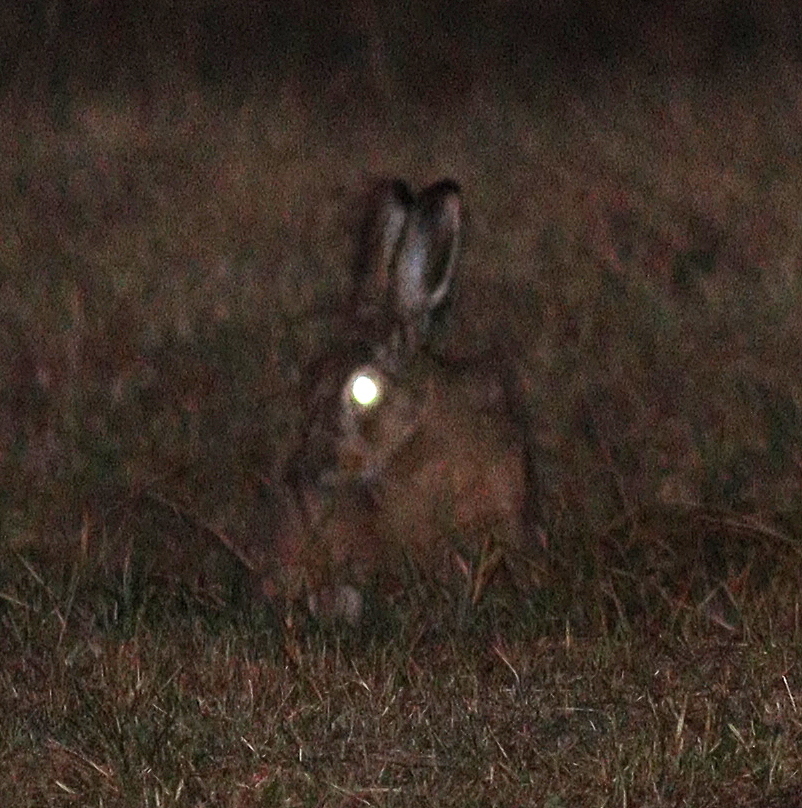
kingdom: Animalia
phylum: Chordata
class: Mammalia
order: Lagomorpha
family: Leporidae
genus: Lepus
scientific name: Lepus europaeus
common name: European hare
